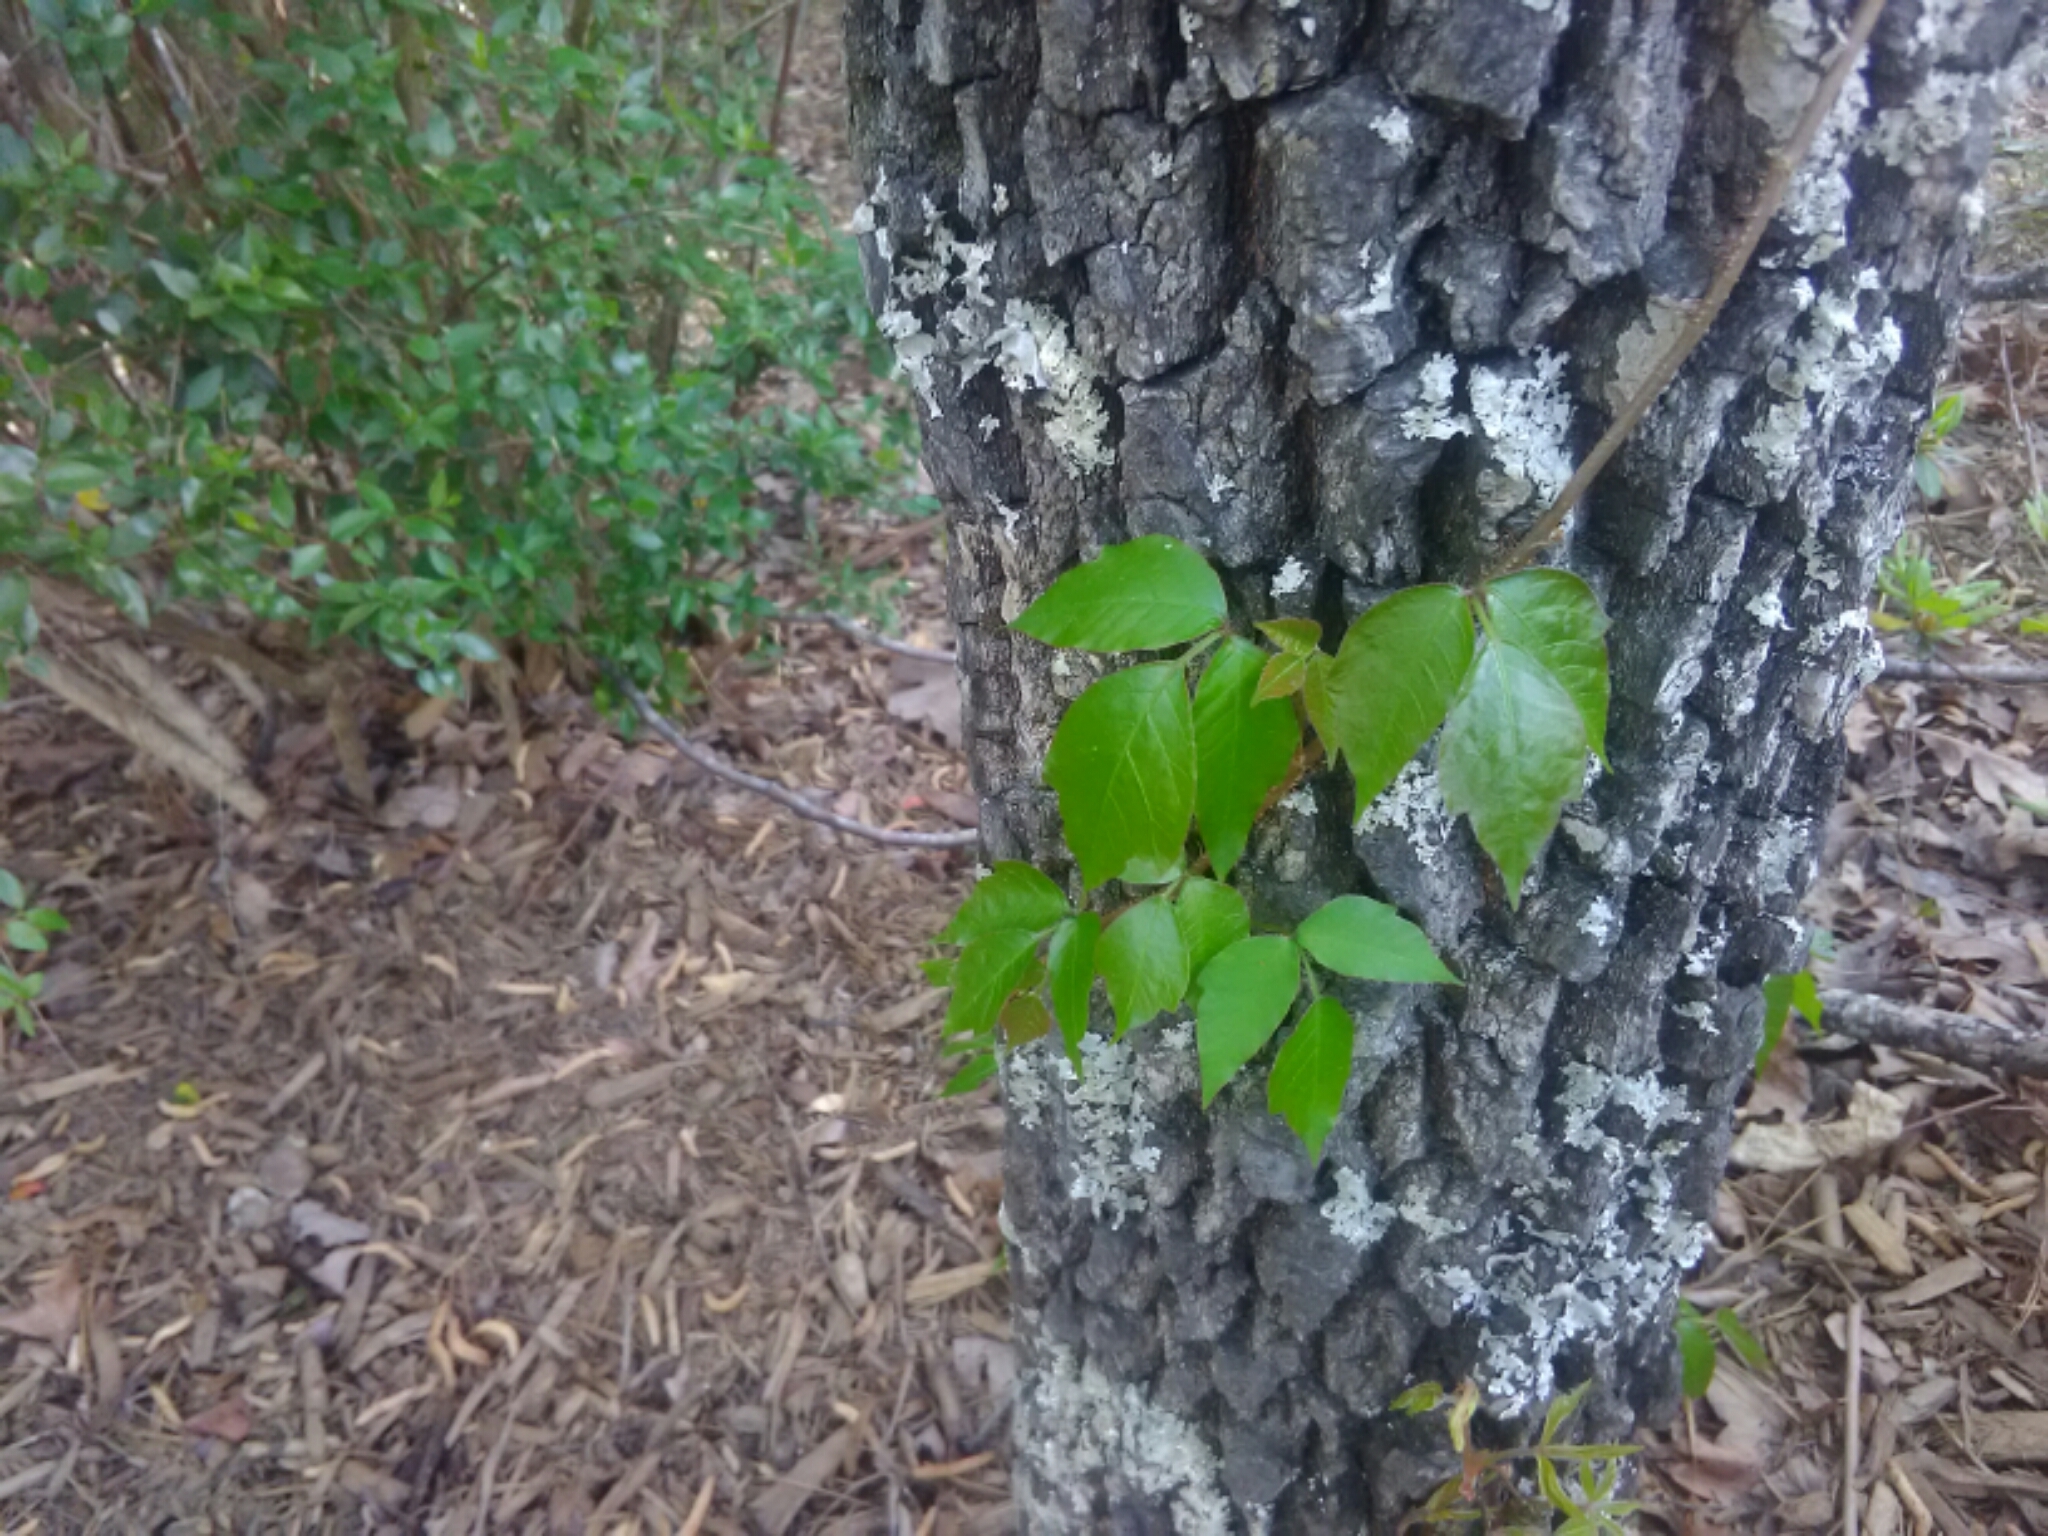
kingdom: Plantae
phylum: Tracheophyta
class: Magnoliopsida
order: Sapindales
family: Anacardiaceae
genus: Toxicodendron
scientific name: Toxicodendron radicans
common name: Poison ivy
